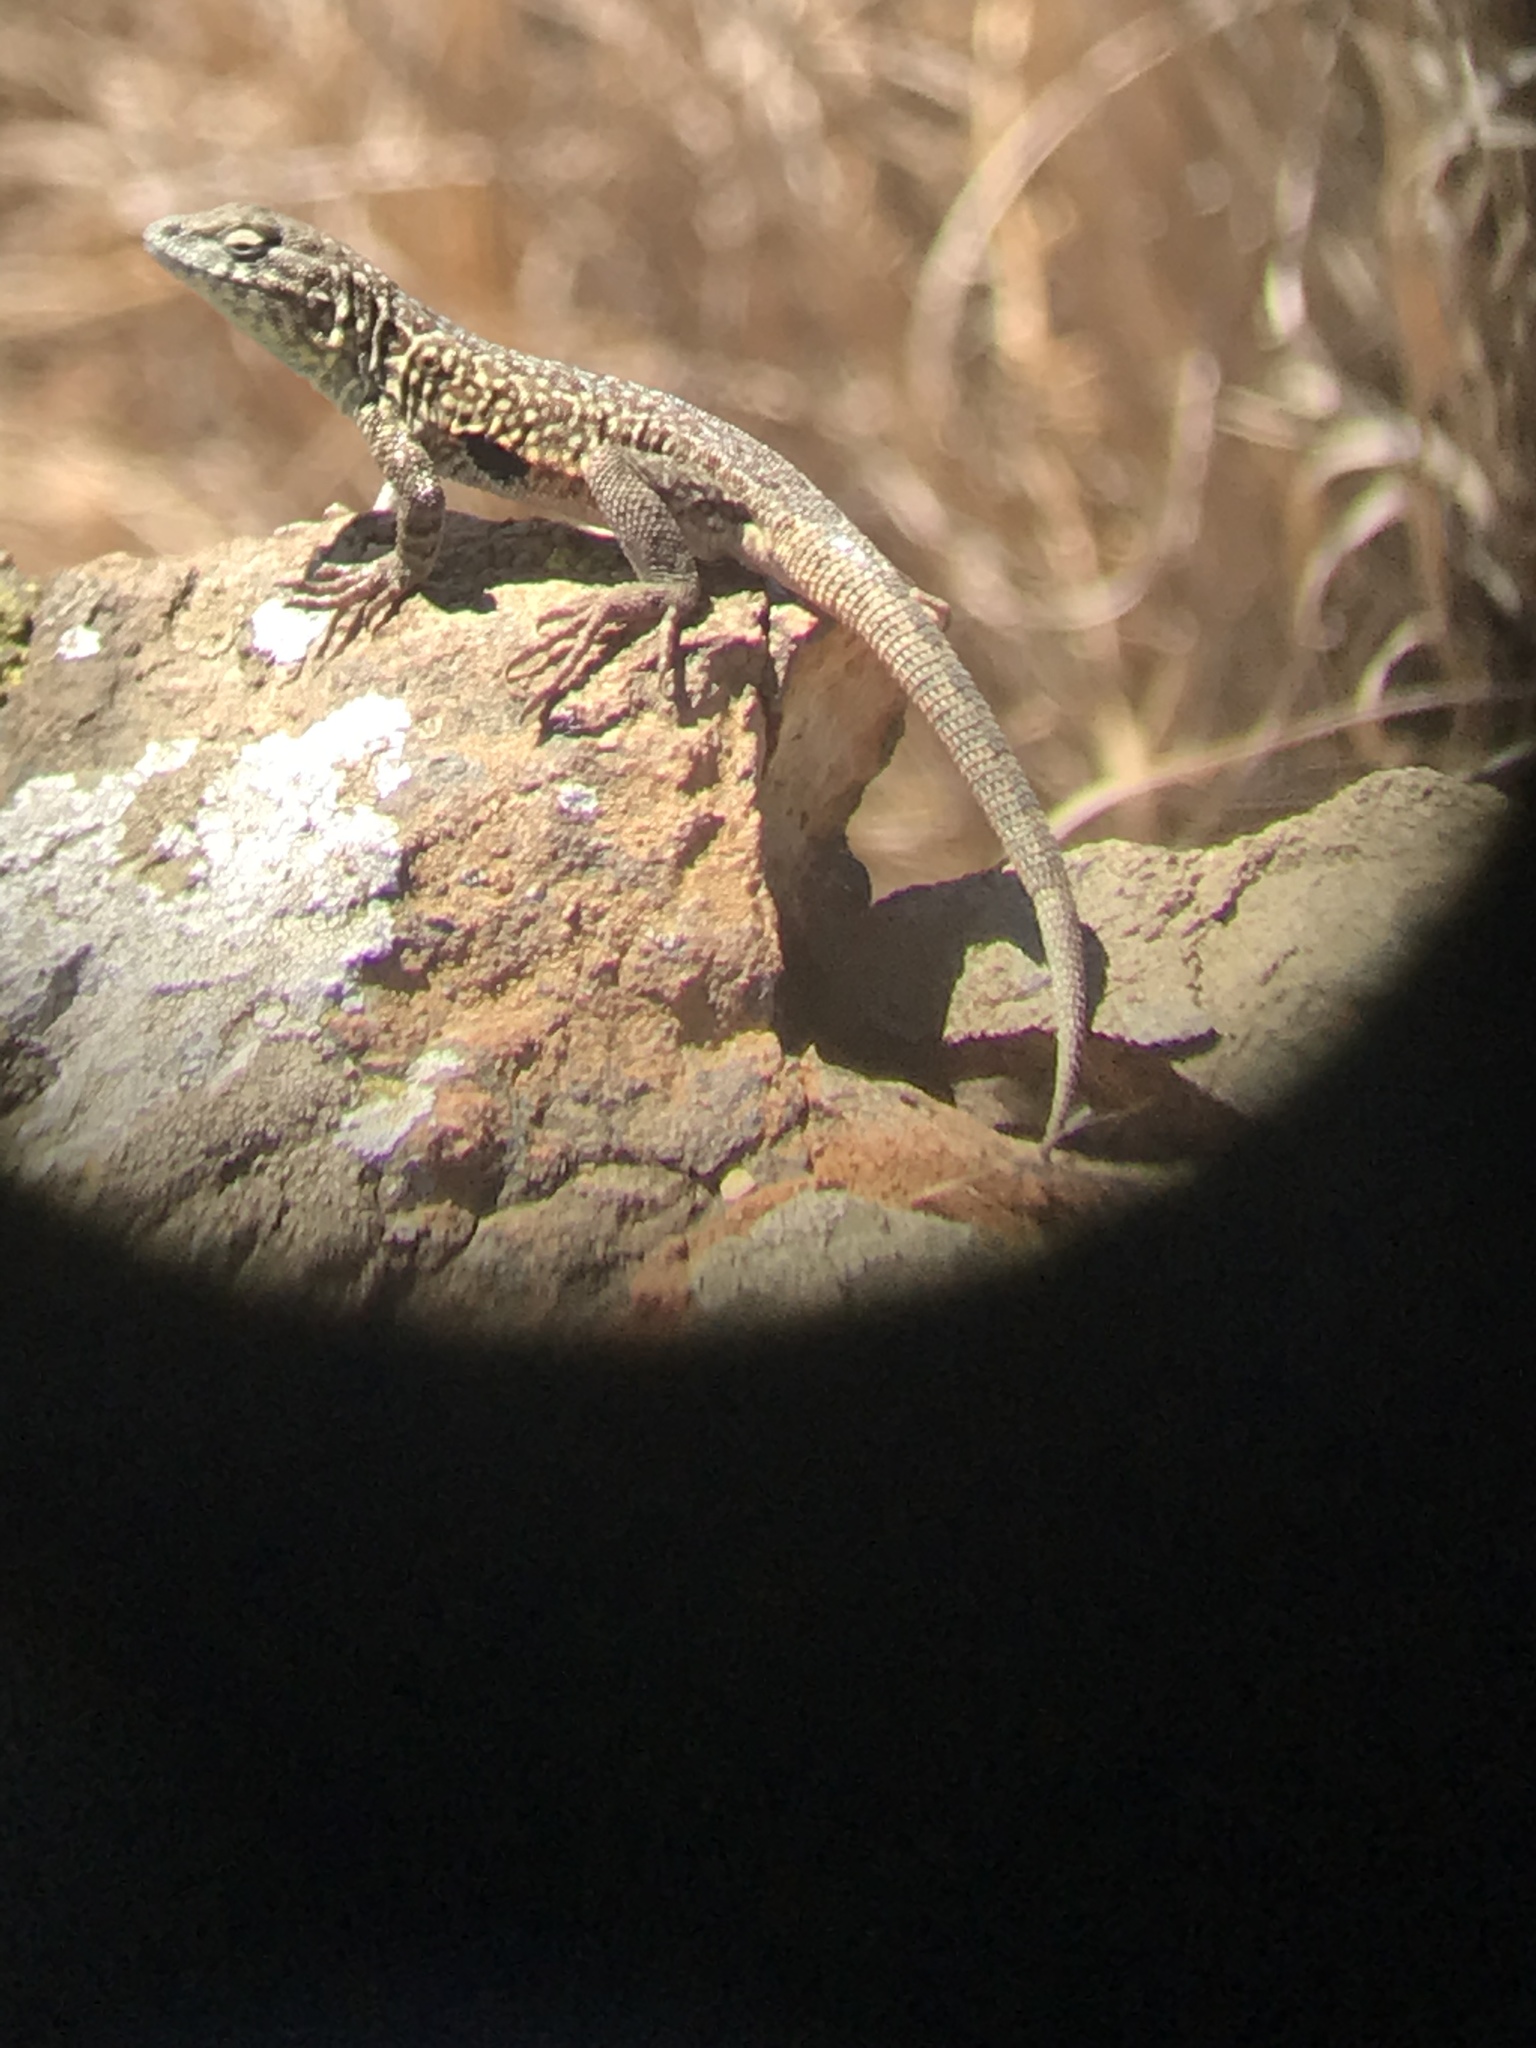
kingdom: Animalia
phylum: Chordata
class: Squamata
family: Phrynosomatidae
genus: Uta
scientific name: Uta stansburiana
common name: Side-blotched lizard
